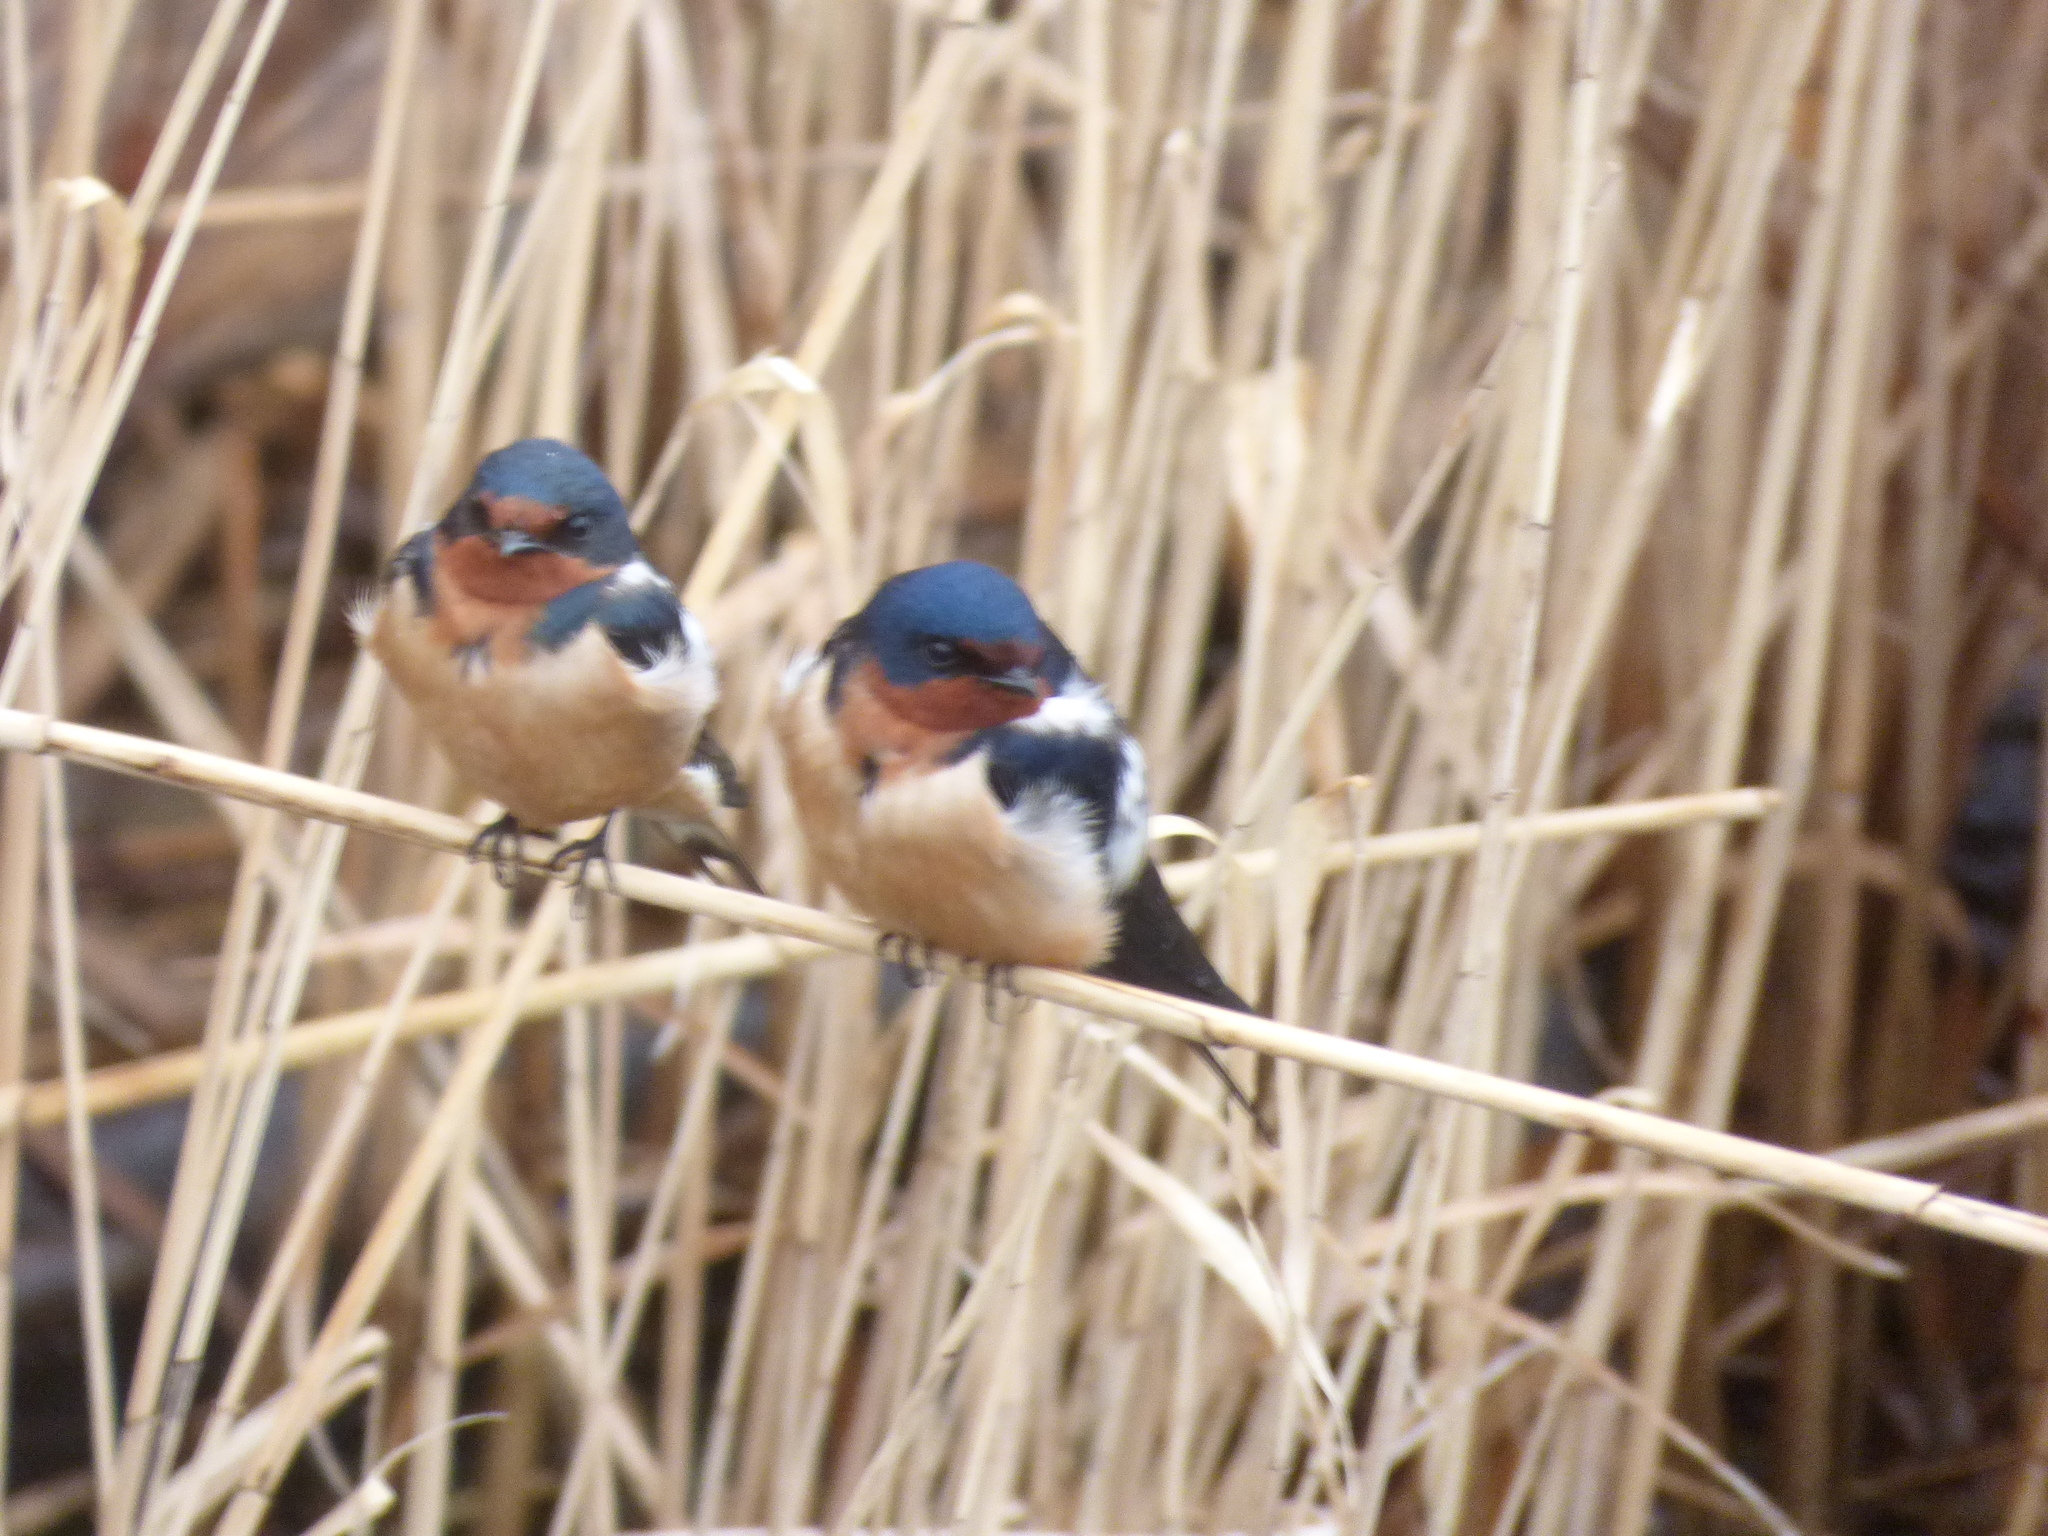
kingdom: Animalia
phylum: Chordata
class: Aves
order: Passeriformes
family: Hirundinidae
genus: Hirundo
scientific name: Hirundo rustica
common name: Barn swallow
